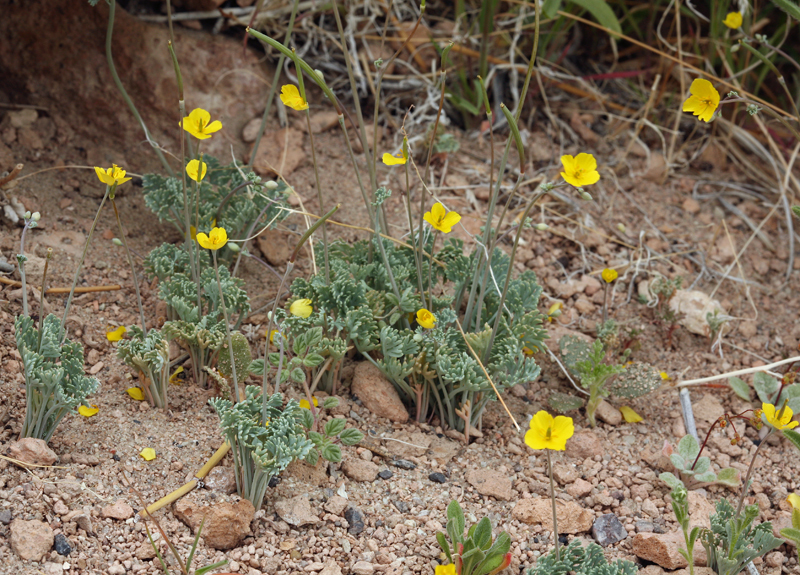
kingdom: Plantae
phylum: Tracheophyta
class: Magnoliopsida
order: Ranunculales
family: Papaveraceae
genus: Eschscholzia
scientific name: Eschscholzia minutiflora
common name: Small-flower california-poppy
